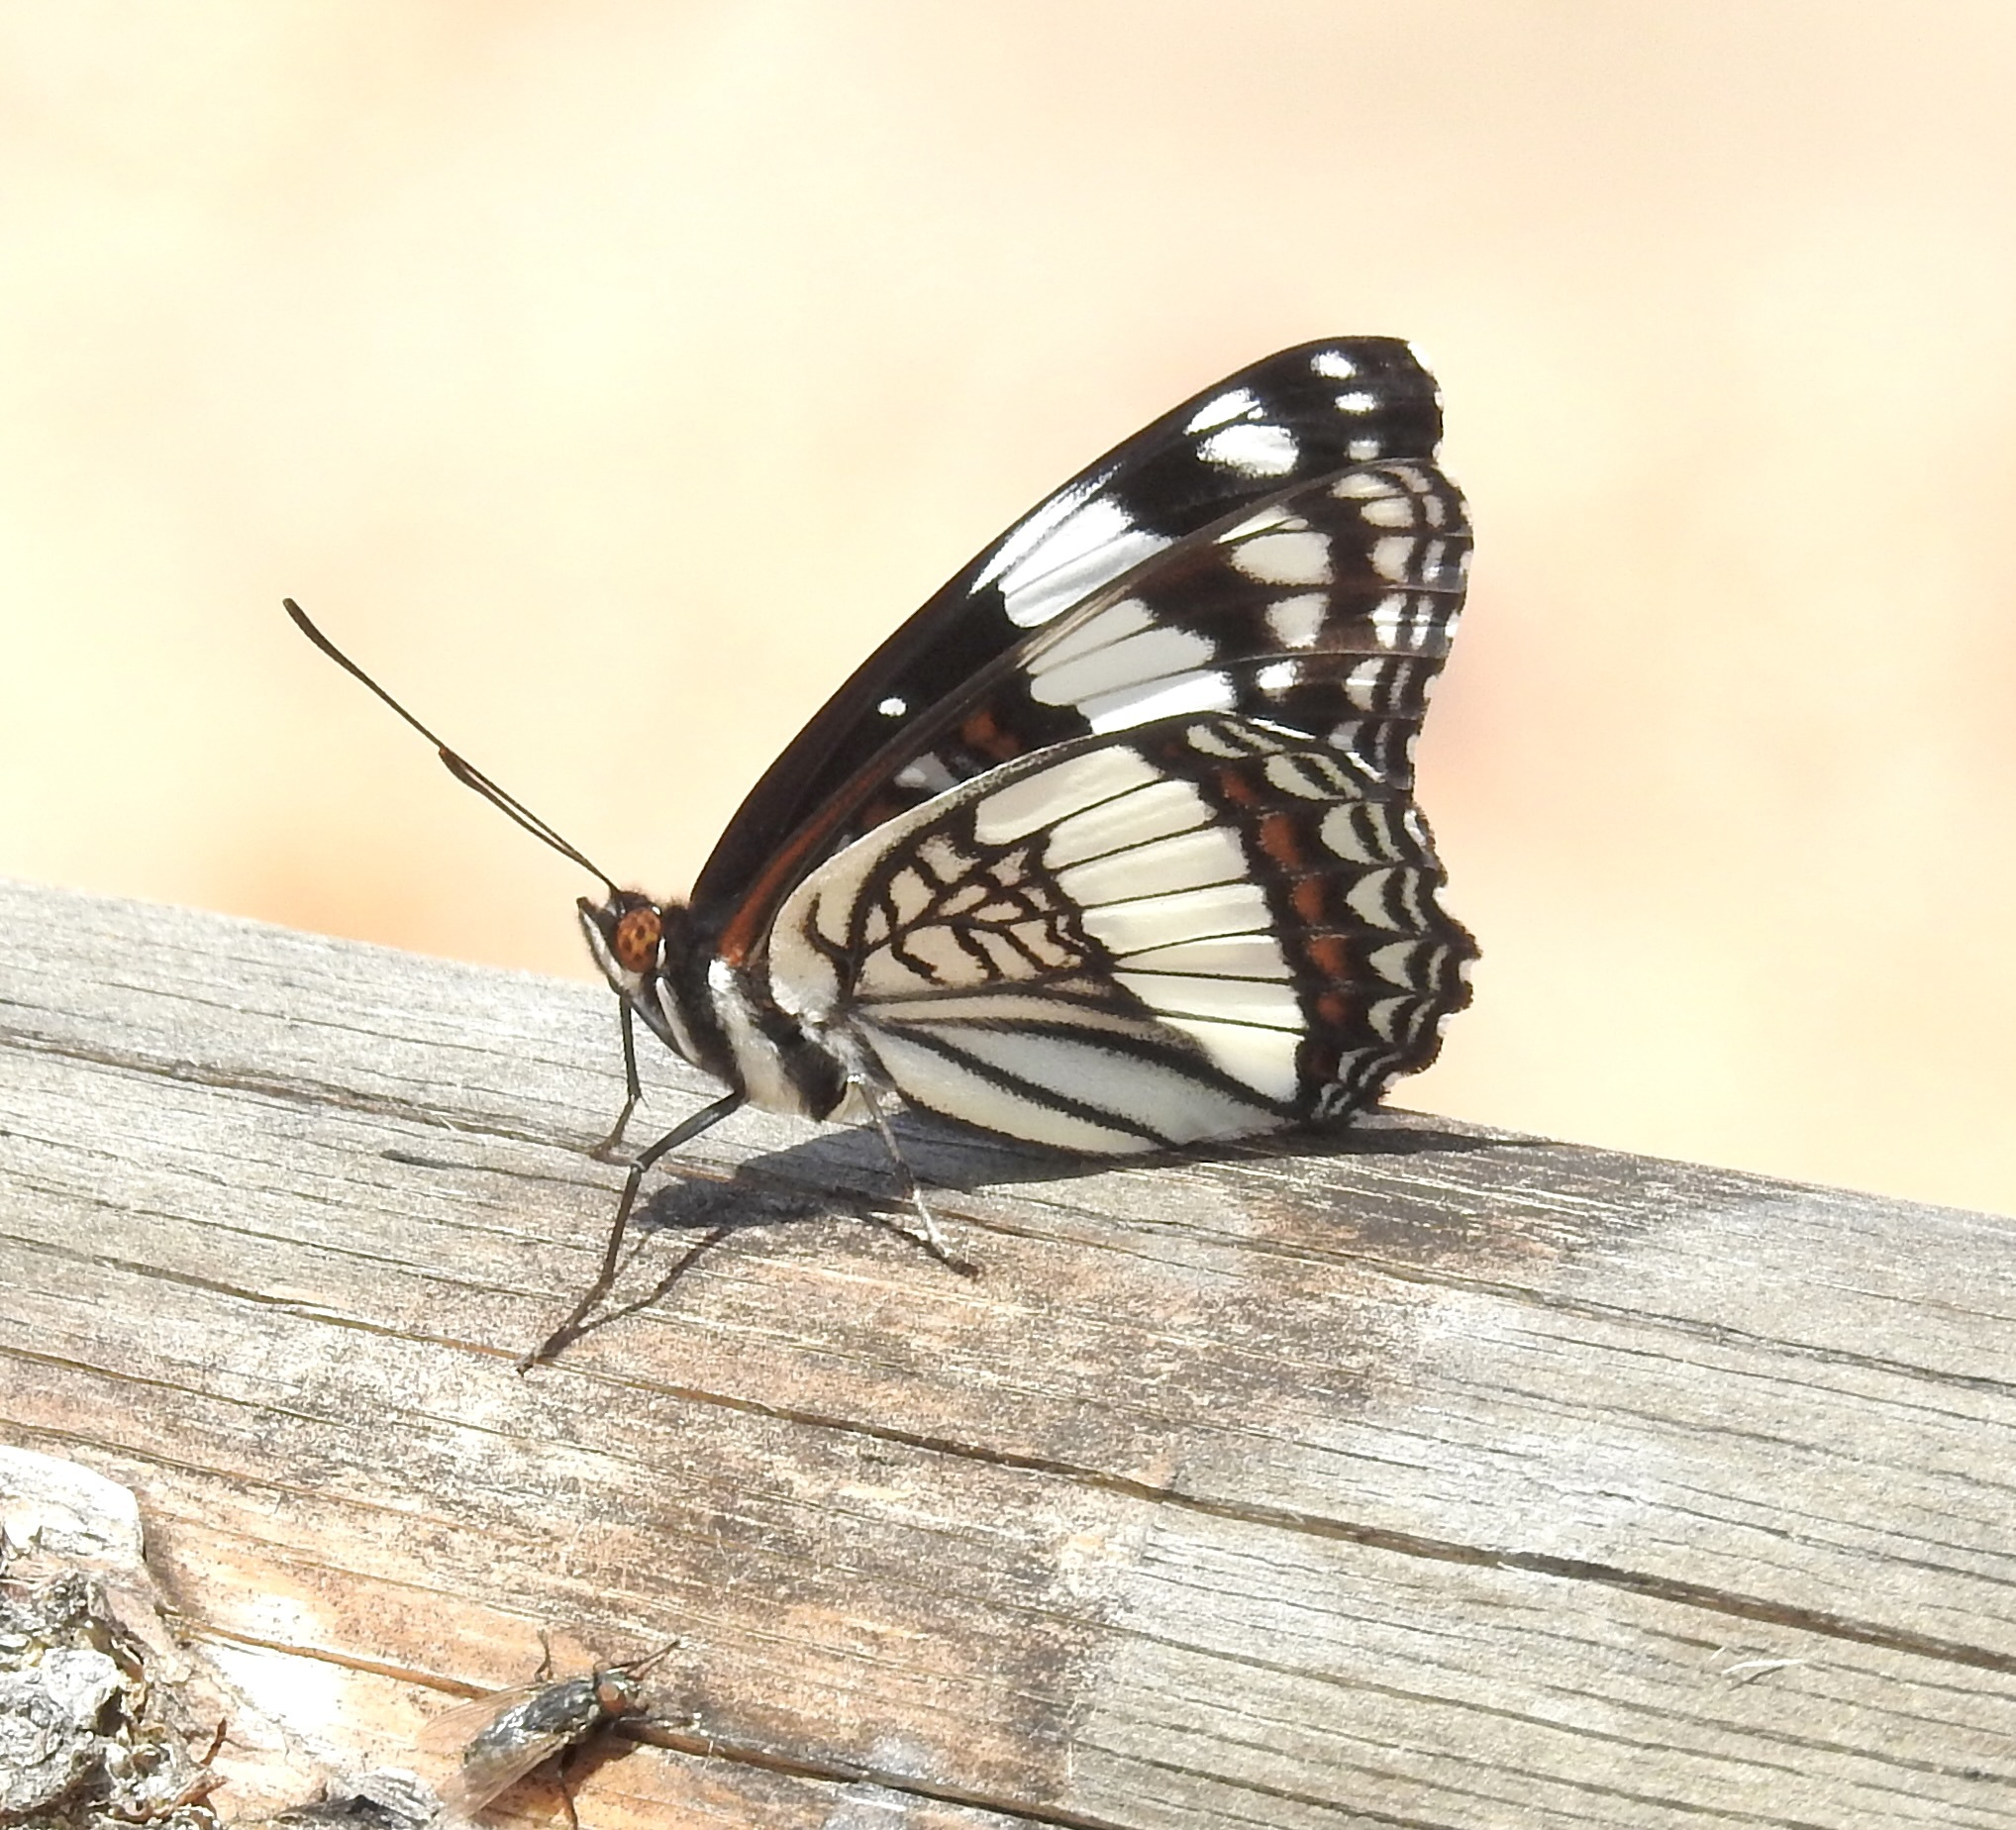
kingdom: Animalia
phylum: Arthropoda
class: Insecta
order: Lepidoptera
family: Nymphalidae
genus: Limenitis
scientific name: Limenitis weidemeyerii
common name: Weidemeyer's admiral
